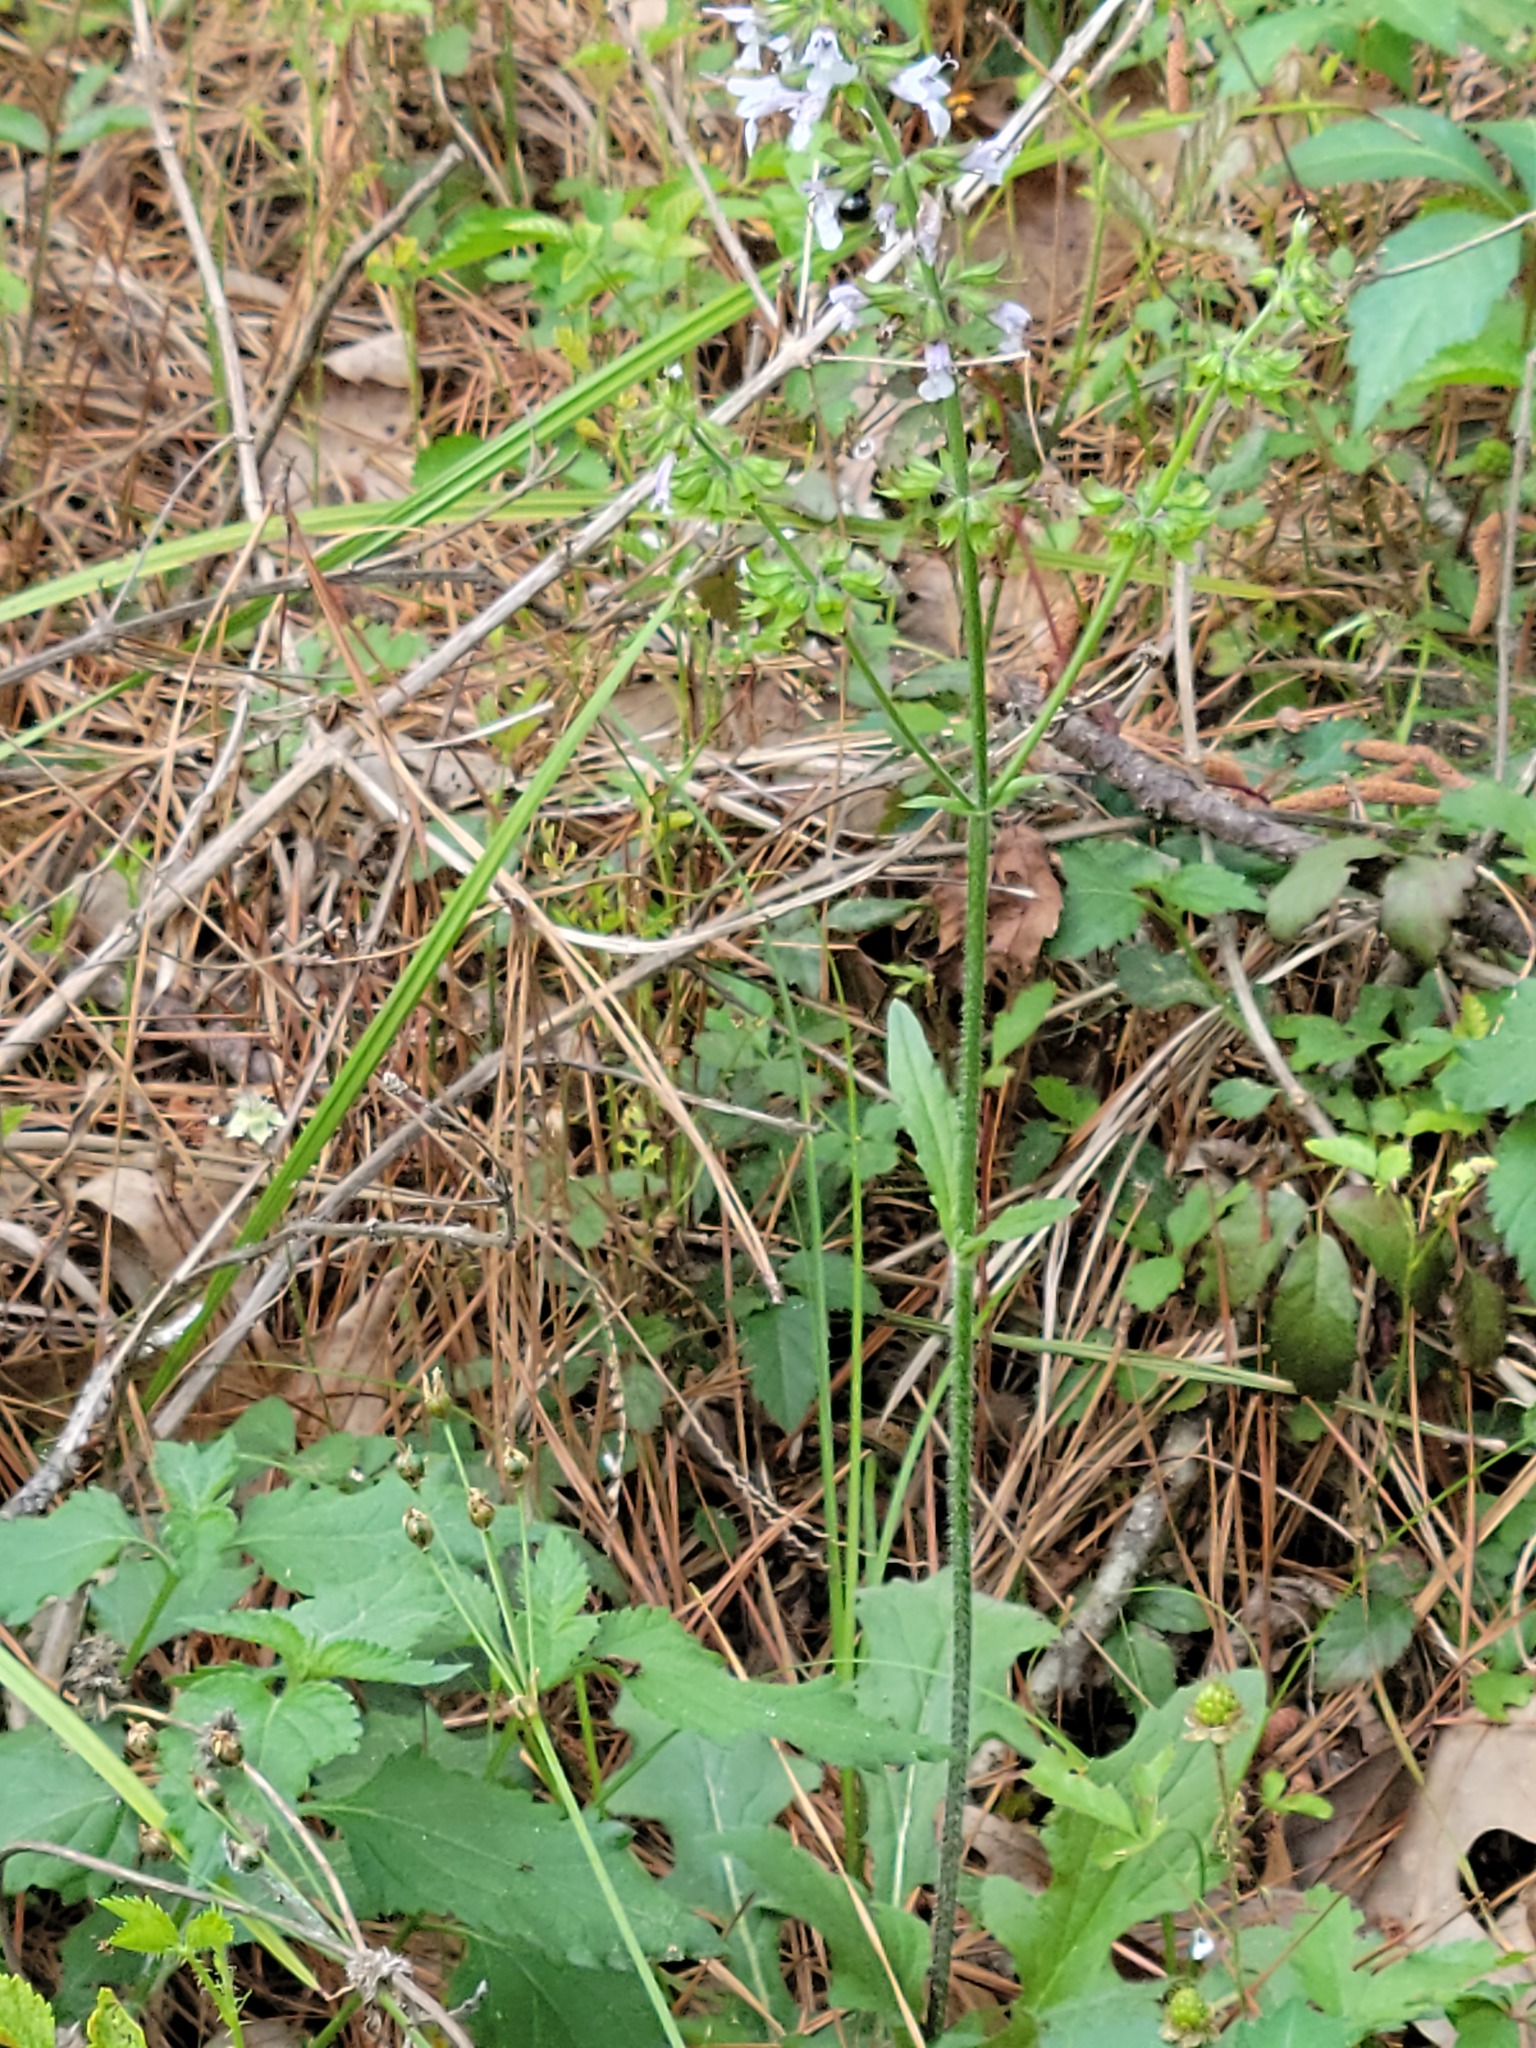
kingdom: Plantae
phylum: Tracheophyta
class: Magnoliopsida
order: Lamiales
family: Lamiaceae
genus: Salvia
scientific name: Salvia lyrata
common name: Cancerweed
